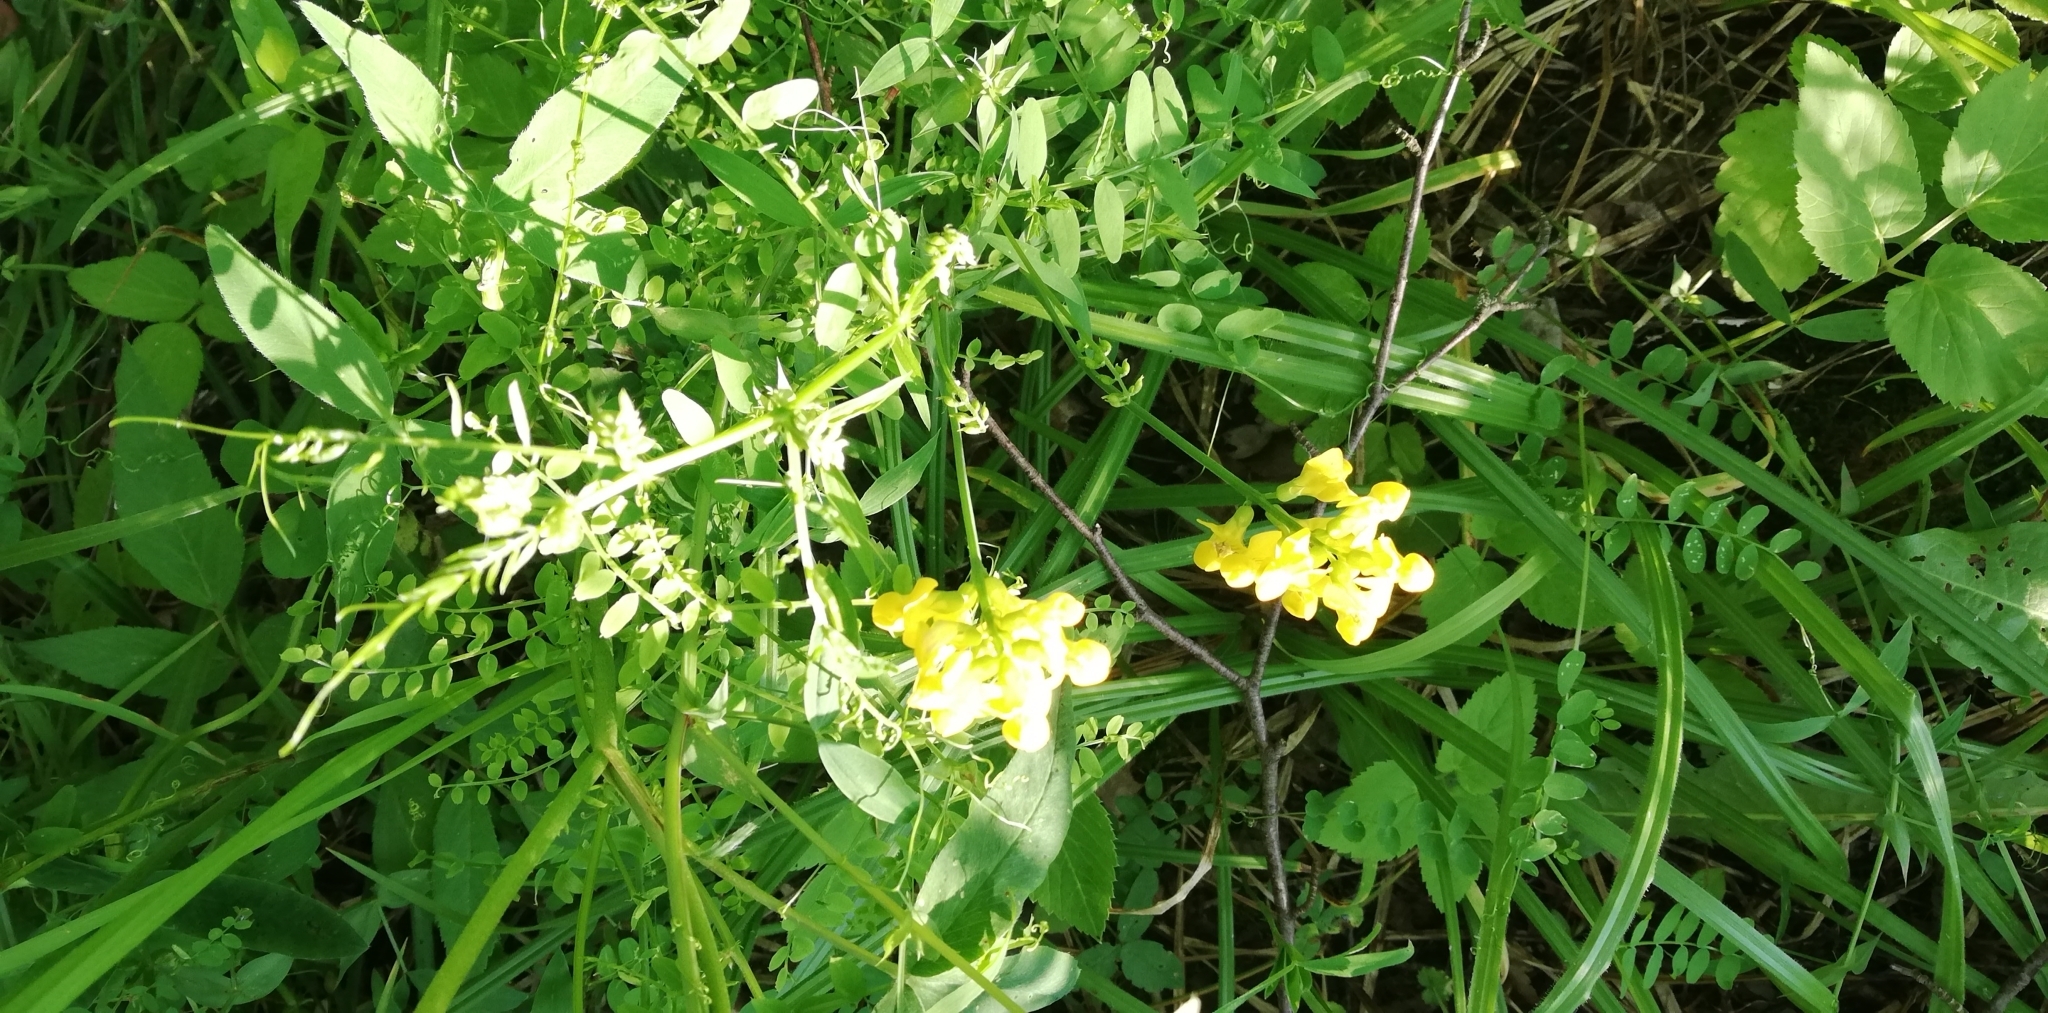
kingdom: Plantae
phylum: Tracheophyta
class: Magnoliopsida
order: Fabales
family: Fabaceae
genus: Lathyrus
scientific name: Lathyrus pratensis
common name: Meadow vetchling
